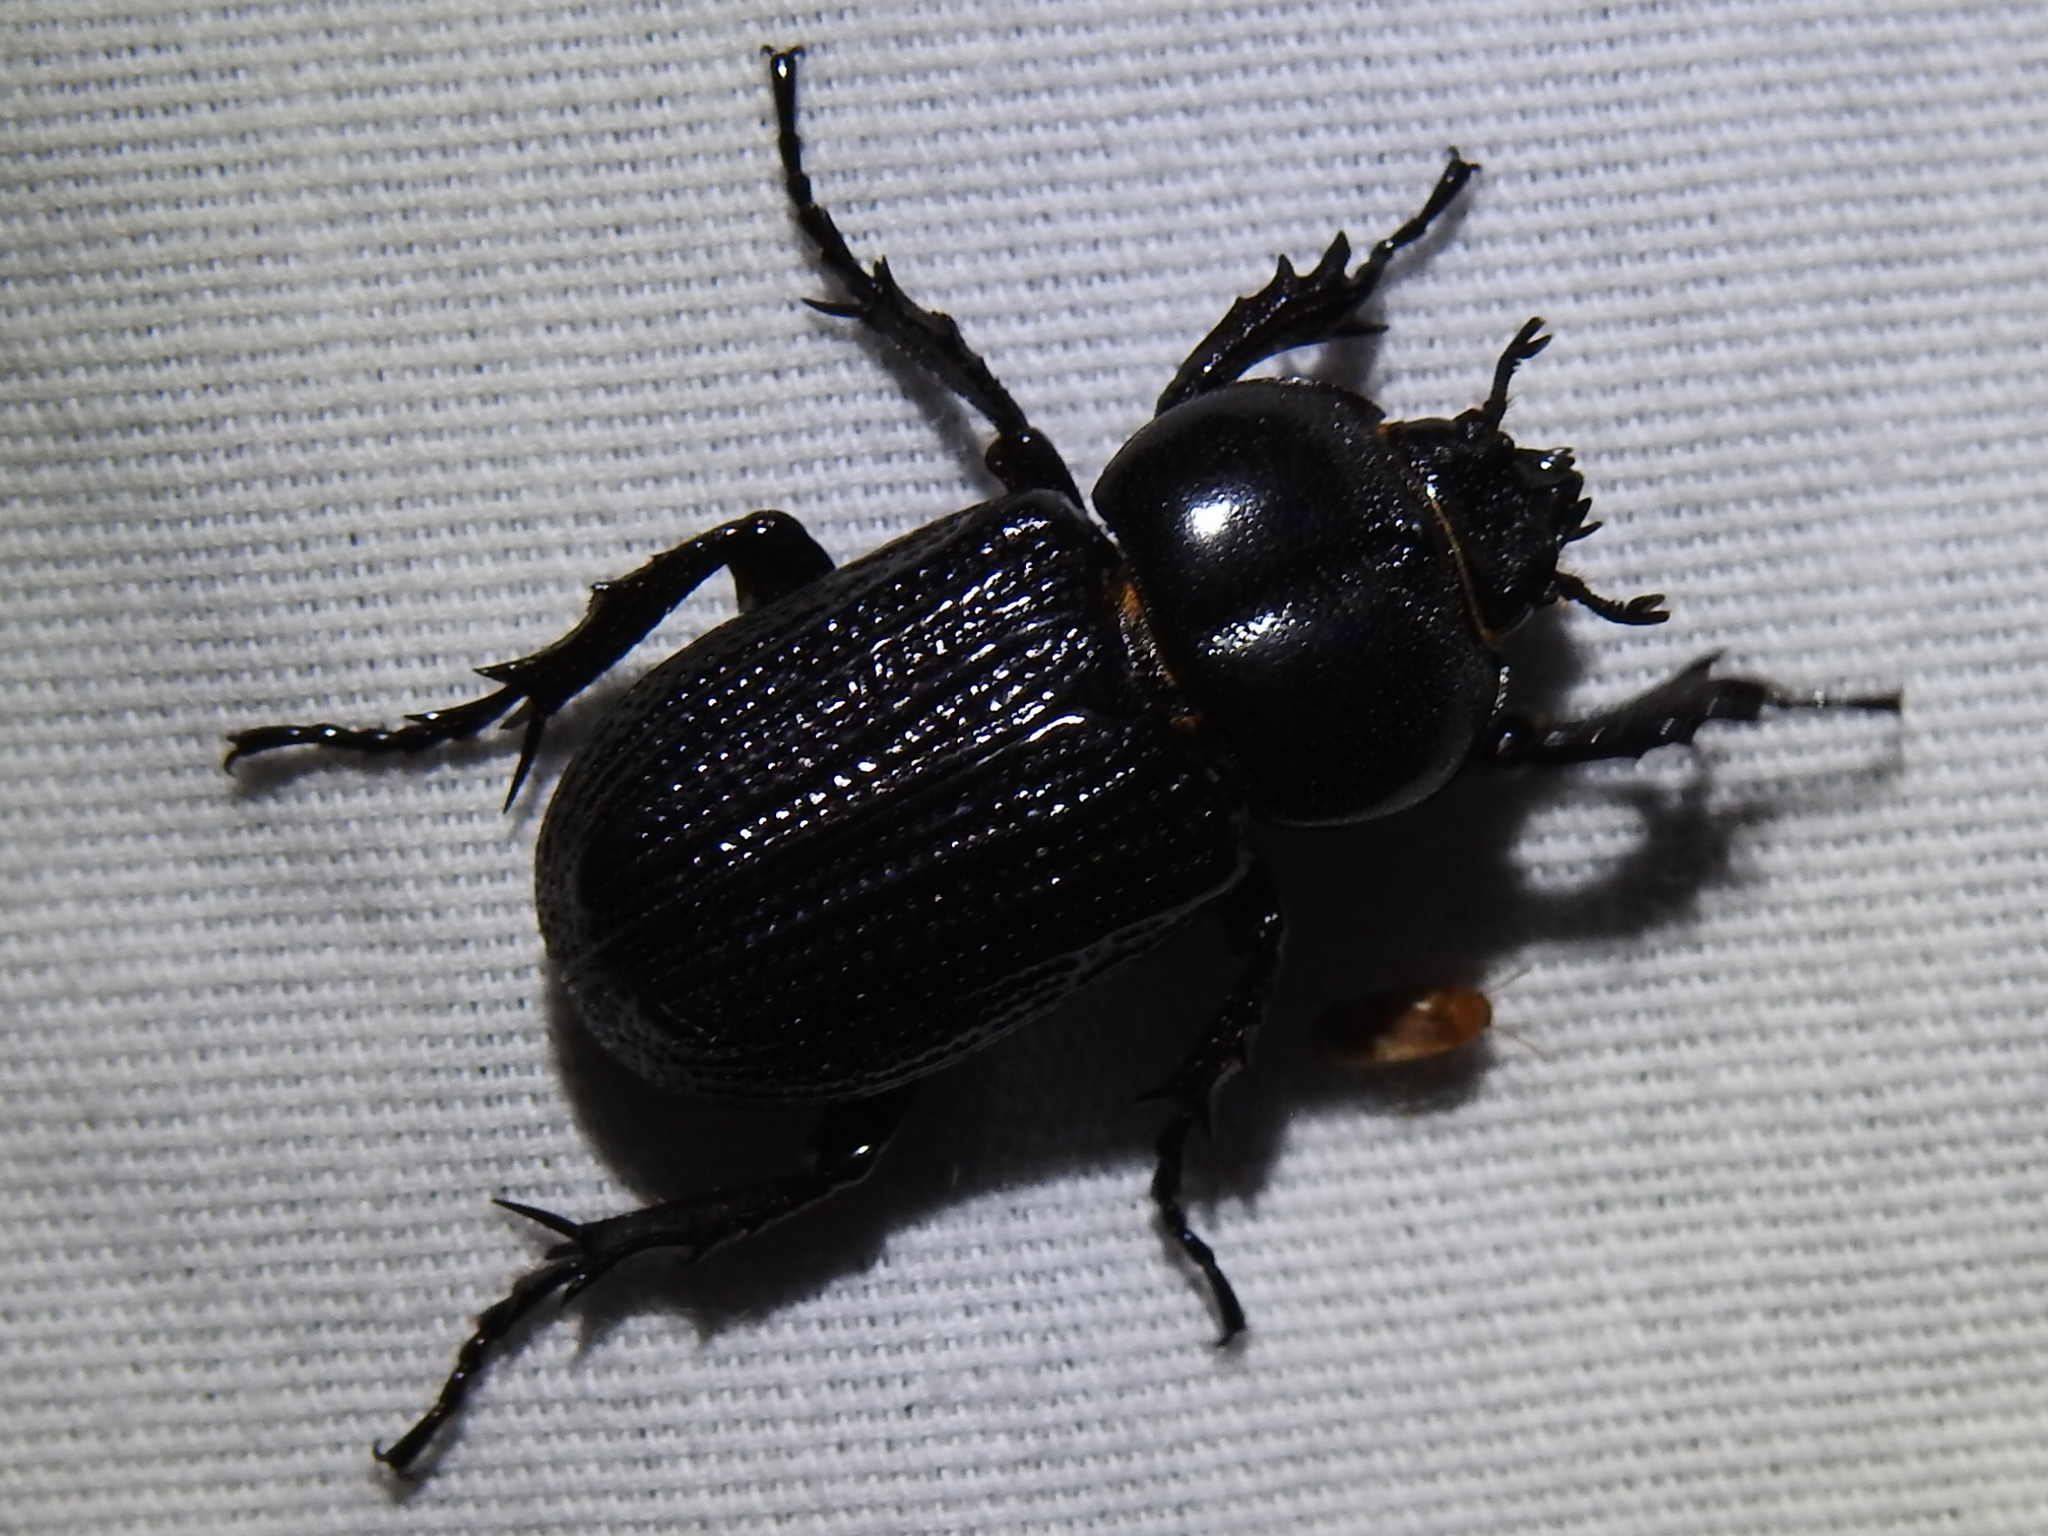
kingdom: Animalia
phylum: Arthropoda
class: Insecta
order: Coleoptera
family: Scarabaeidae
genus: Phileurus
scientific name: Phileurus valgus
